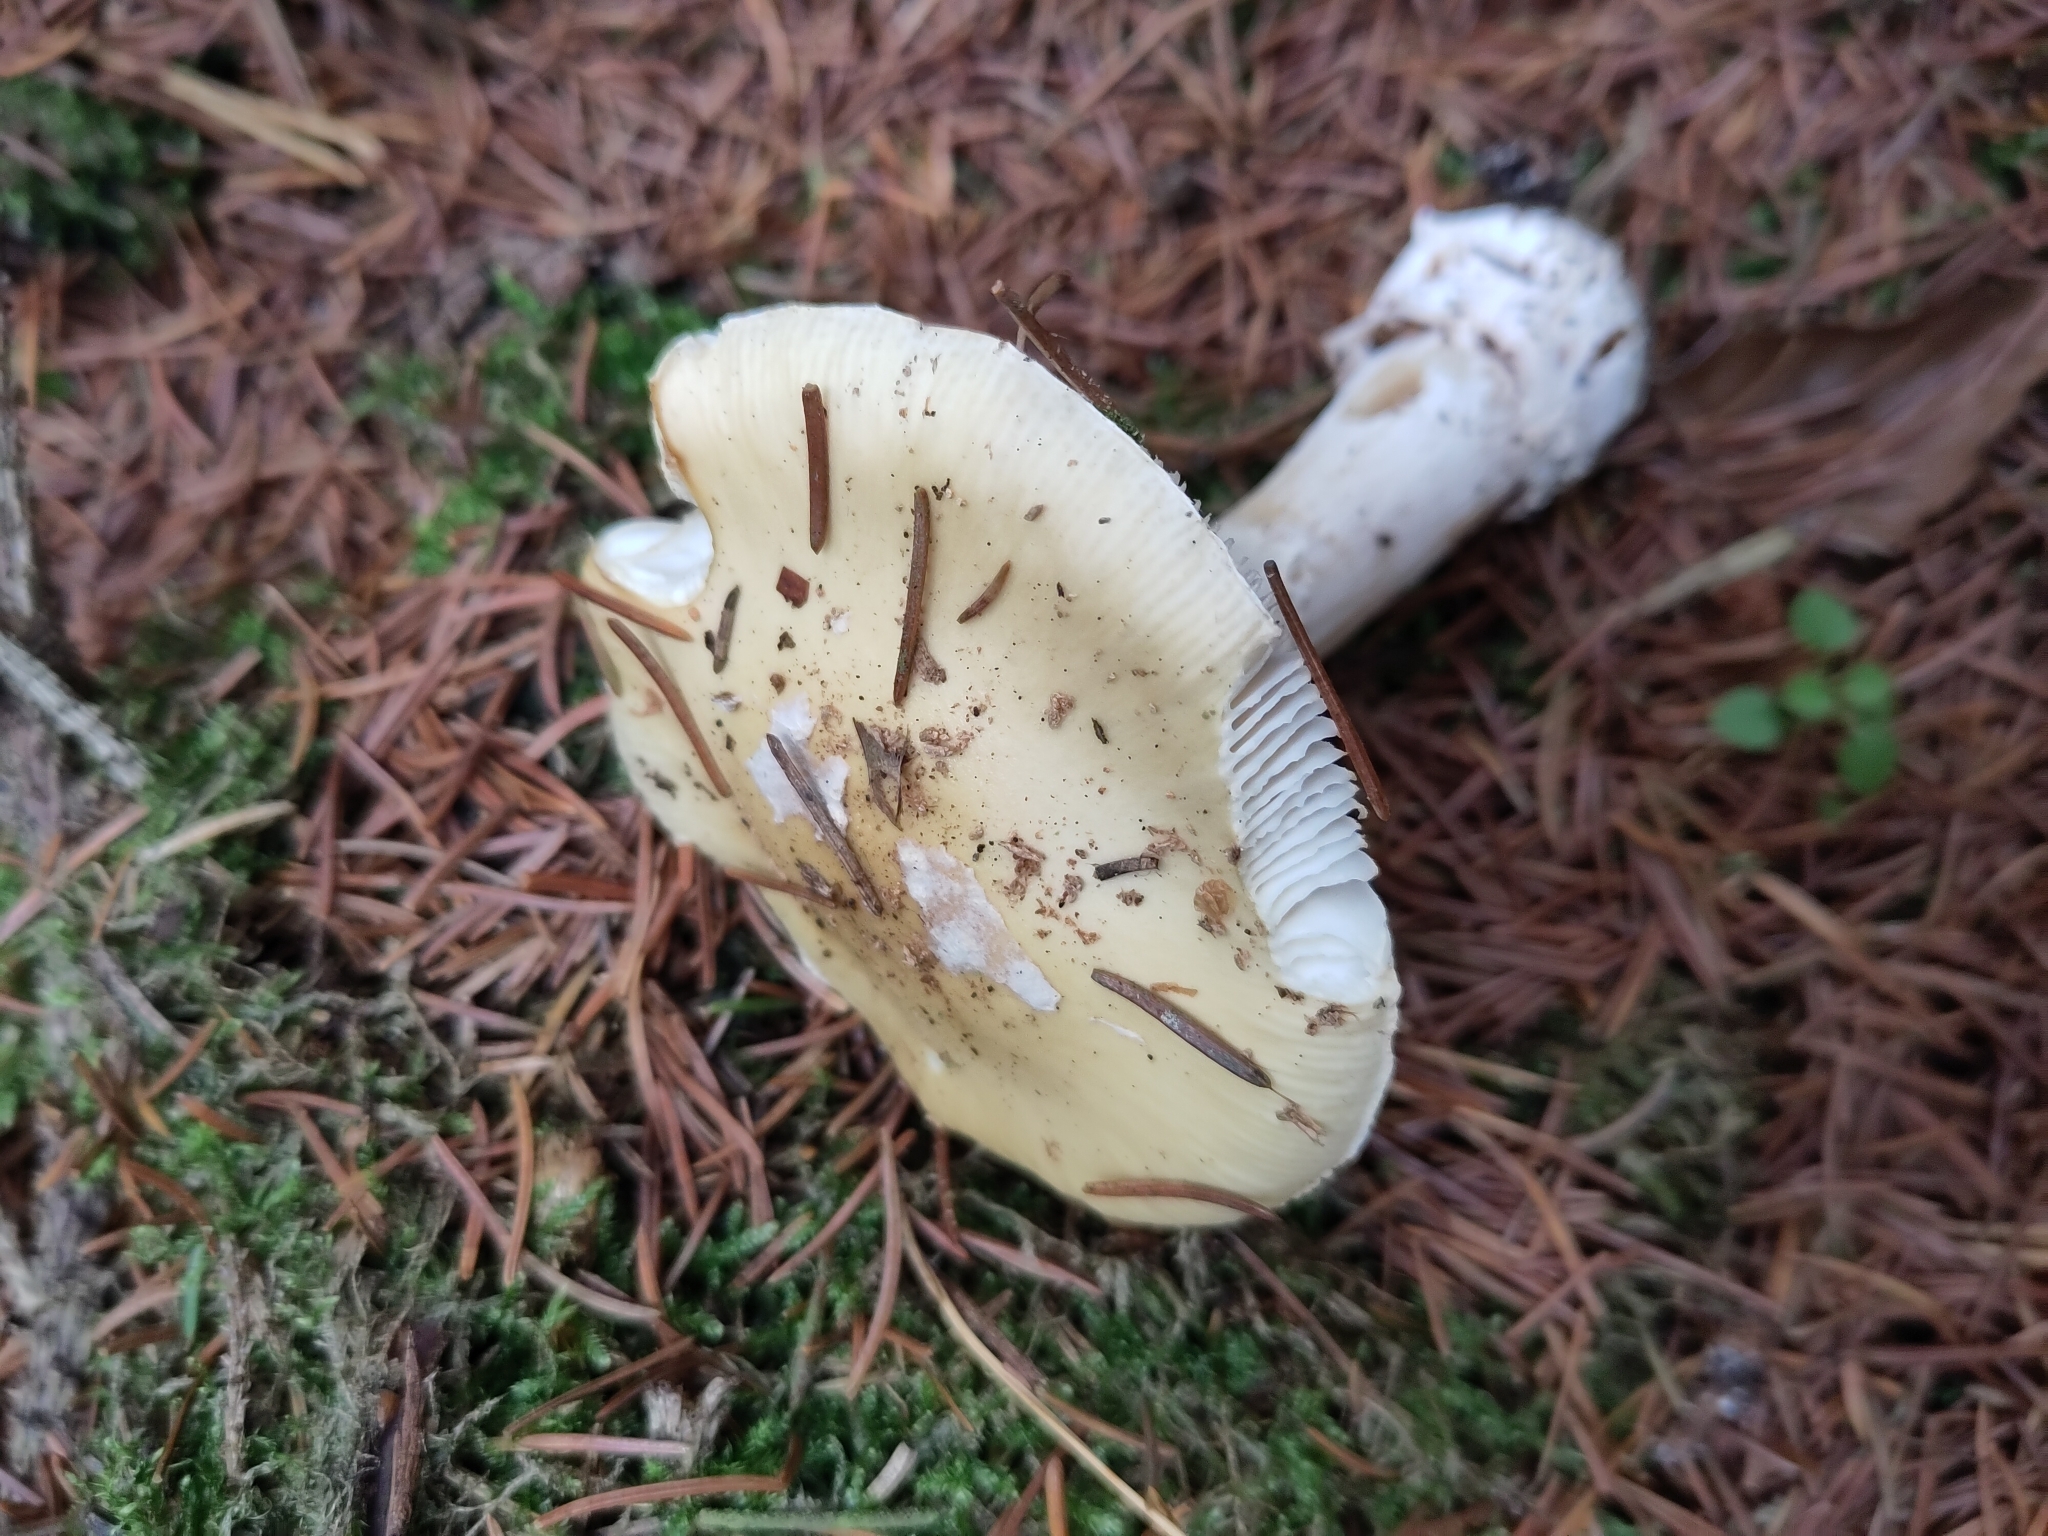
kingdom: Fungi
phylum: Basidiomycota
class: Agaricomycetes
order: Agaricales
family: Amanitaceae
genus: Amanita
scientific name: Amanita gemmata
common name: Jewelled amanita
